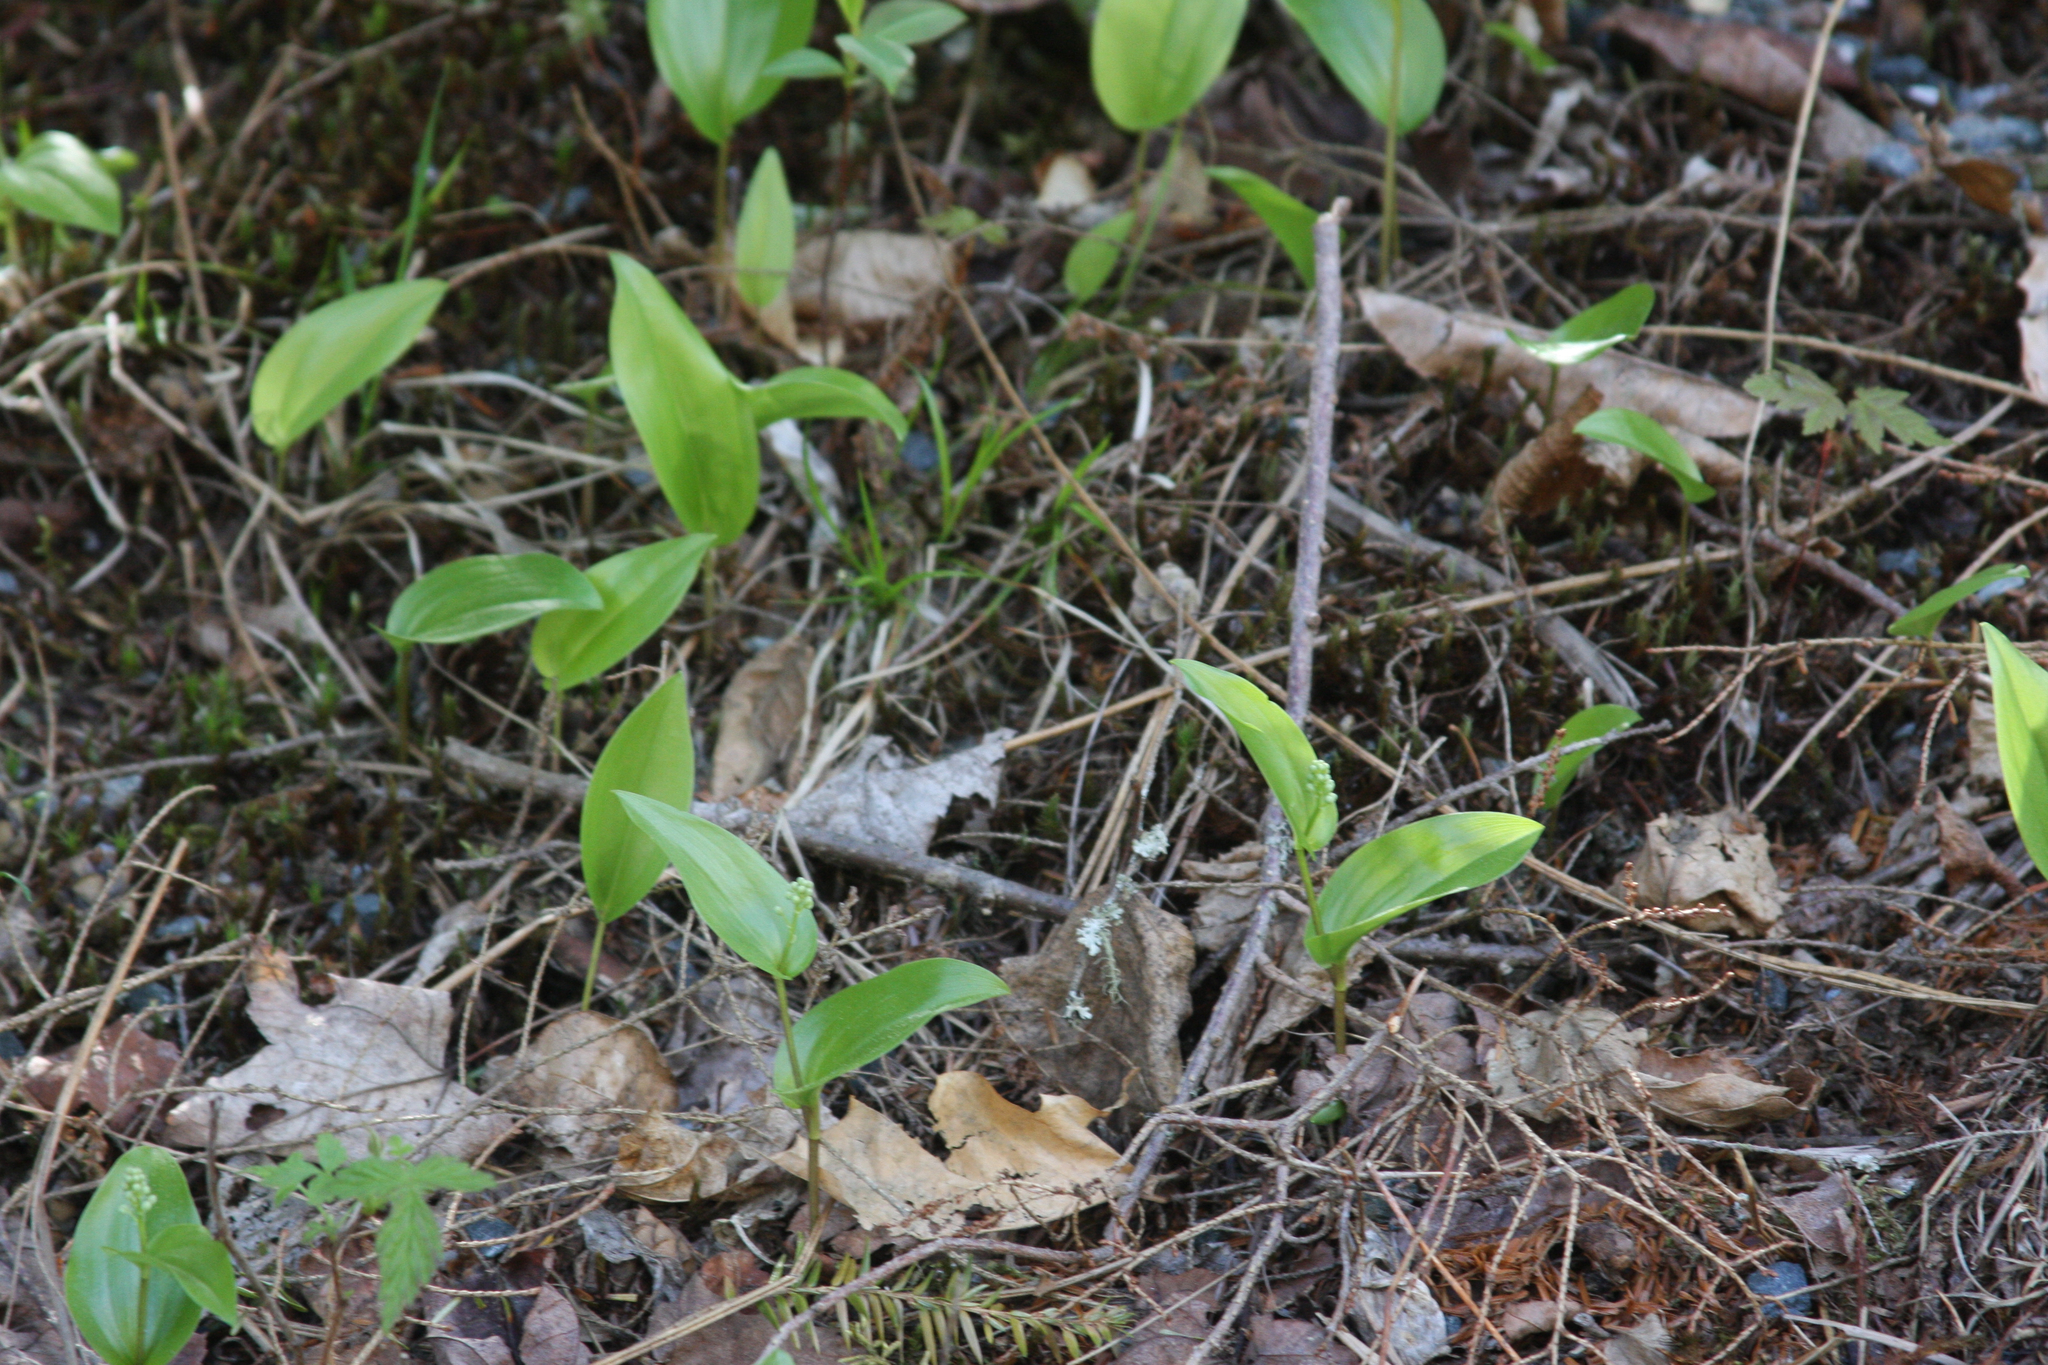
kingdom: Plantae
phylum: Tracheophyta
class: Liliopsida
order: Asparagales
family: Asparagaceae
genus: Maianthemum
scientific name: Maianthemum canadense
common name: False lily-of-the-valley
